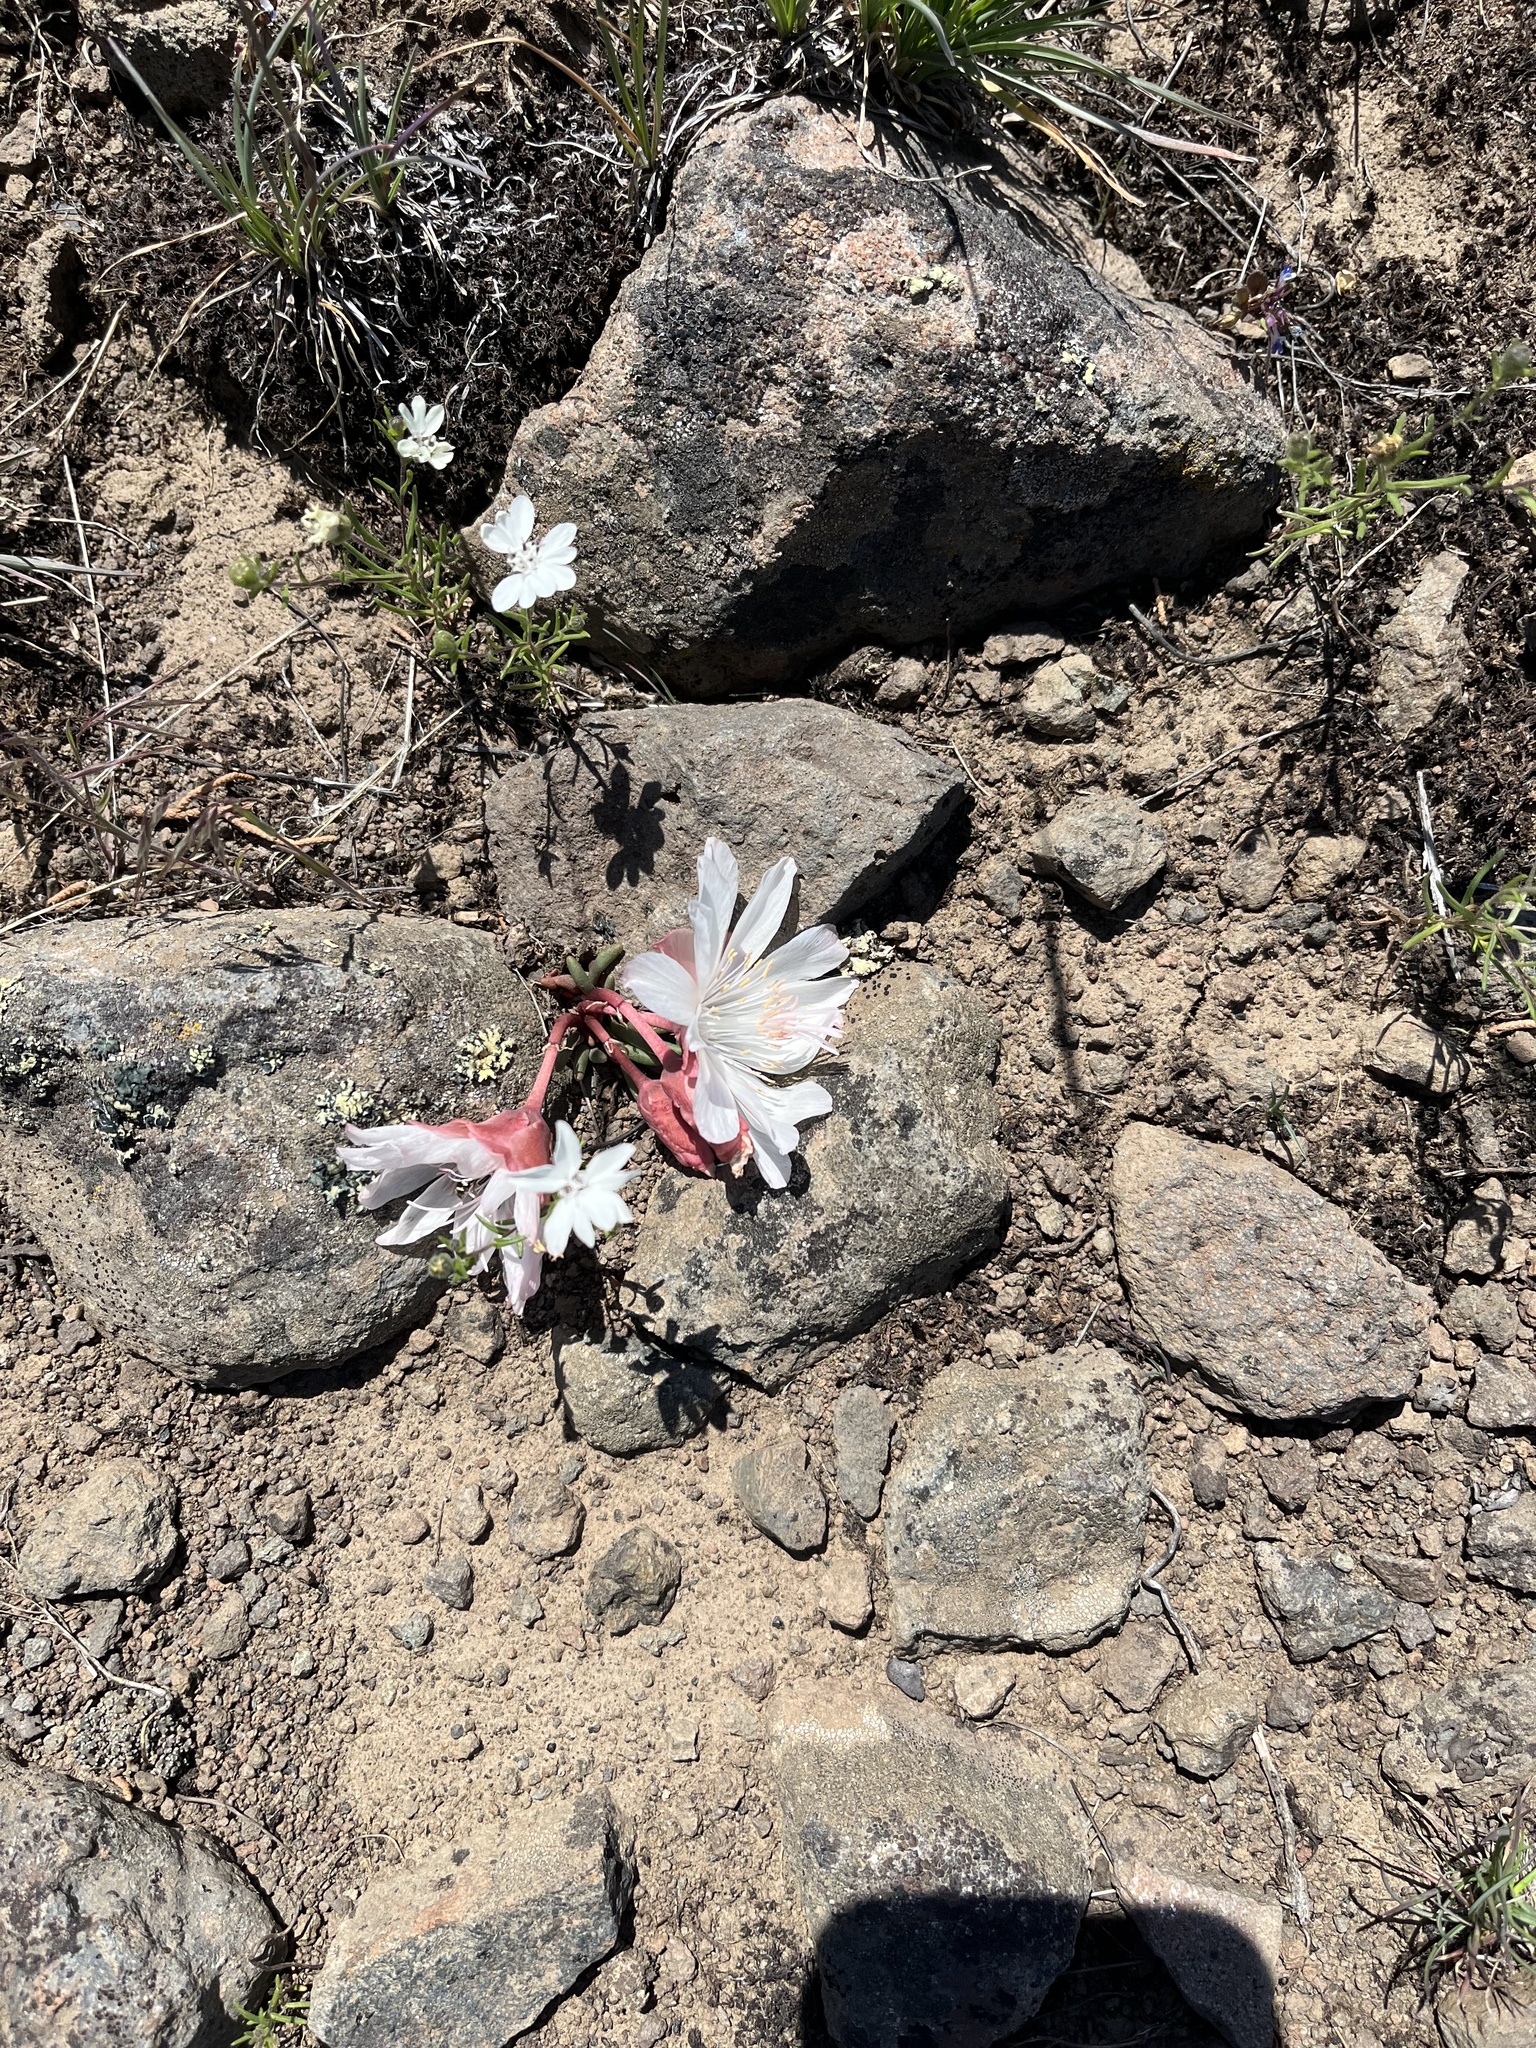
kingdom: Plantae
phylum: Tracheophyta
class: Magnoliopsida
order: Caryophyllales
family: Montiaceae
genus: Lewisia
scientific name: Lewisia rediviva
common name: Bitter-root
